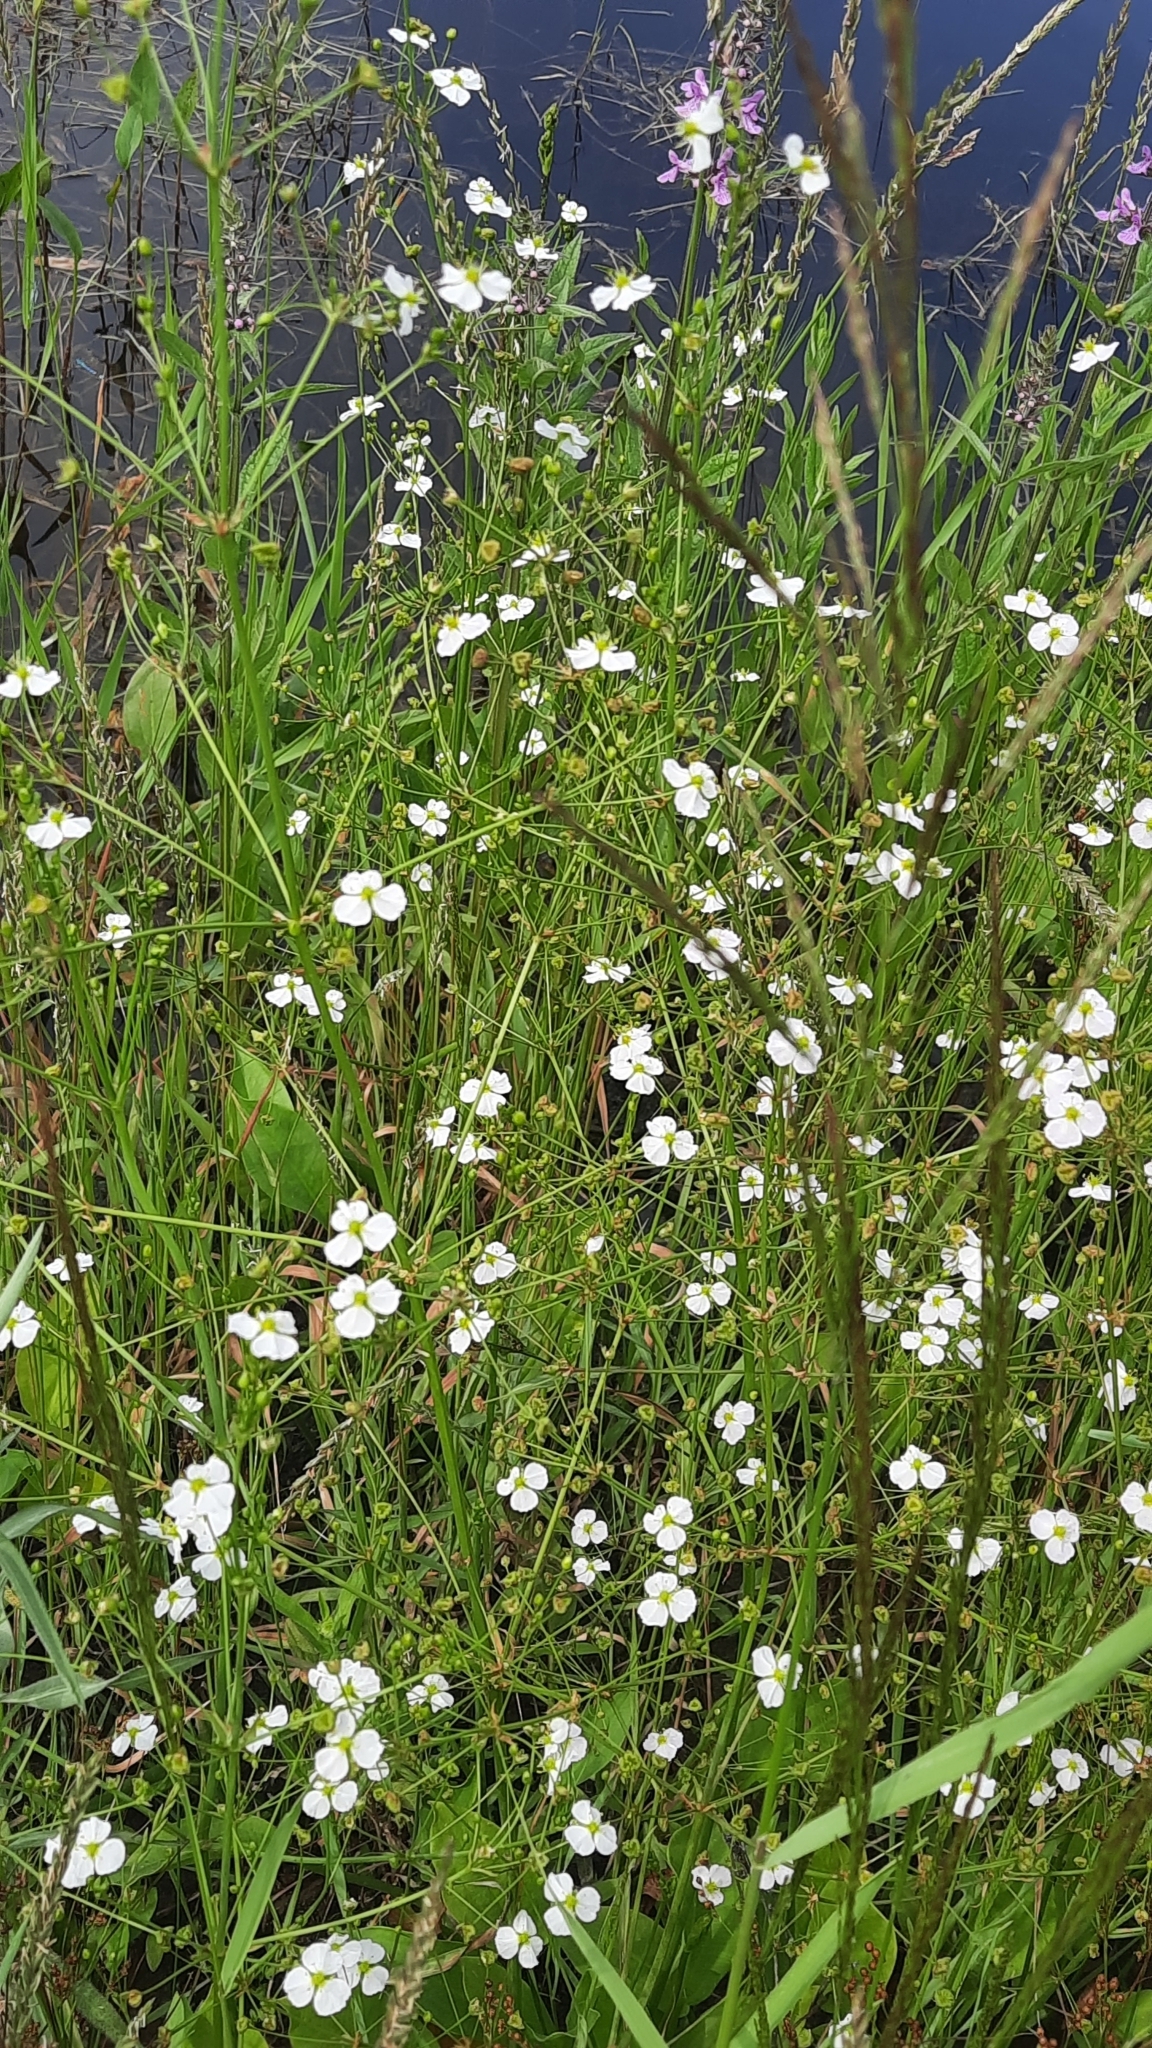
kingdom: Plantae
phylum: Tracheophyta
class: Liliopsida
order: Alismatales
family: Alismataceae
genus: Alisma
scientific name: Alisma plantago-aquatica
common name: Water-plantain
